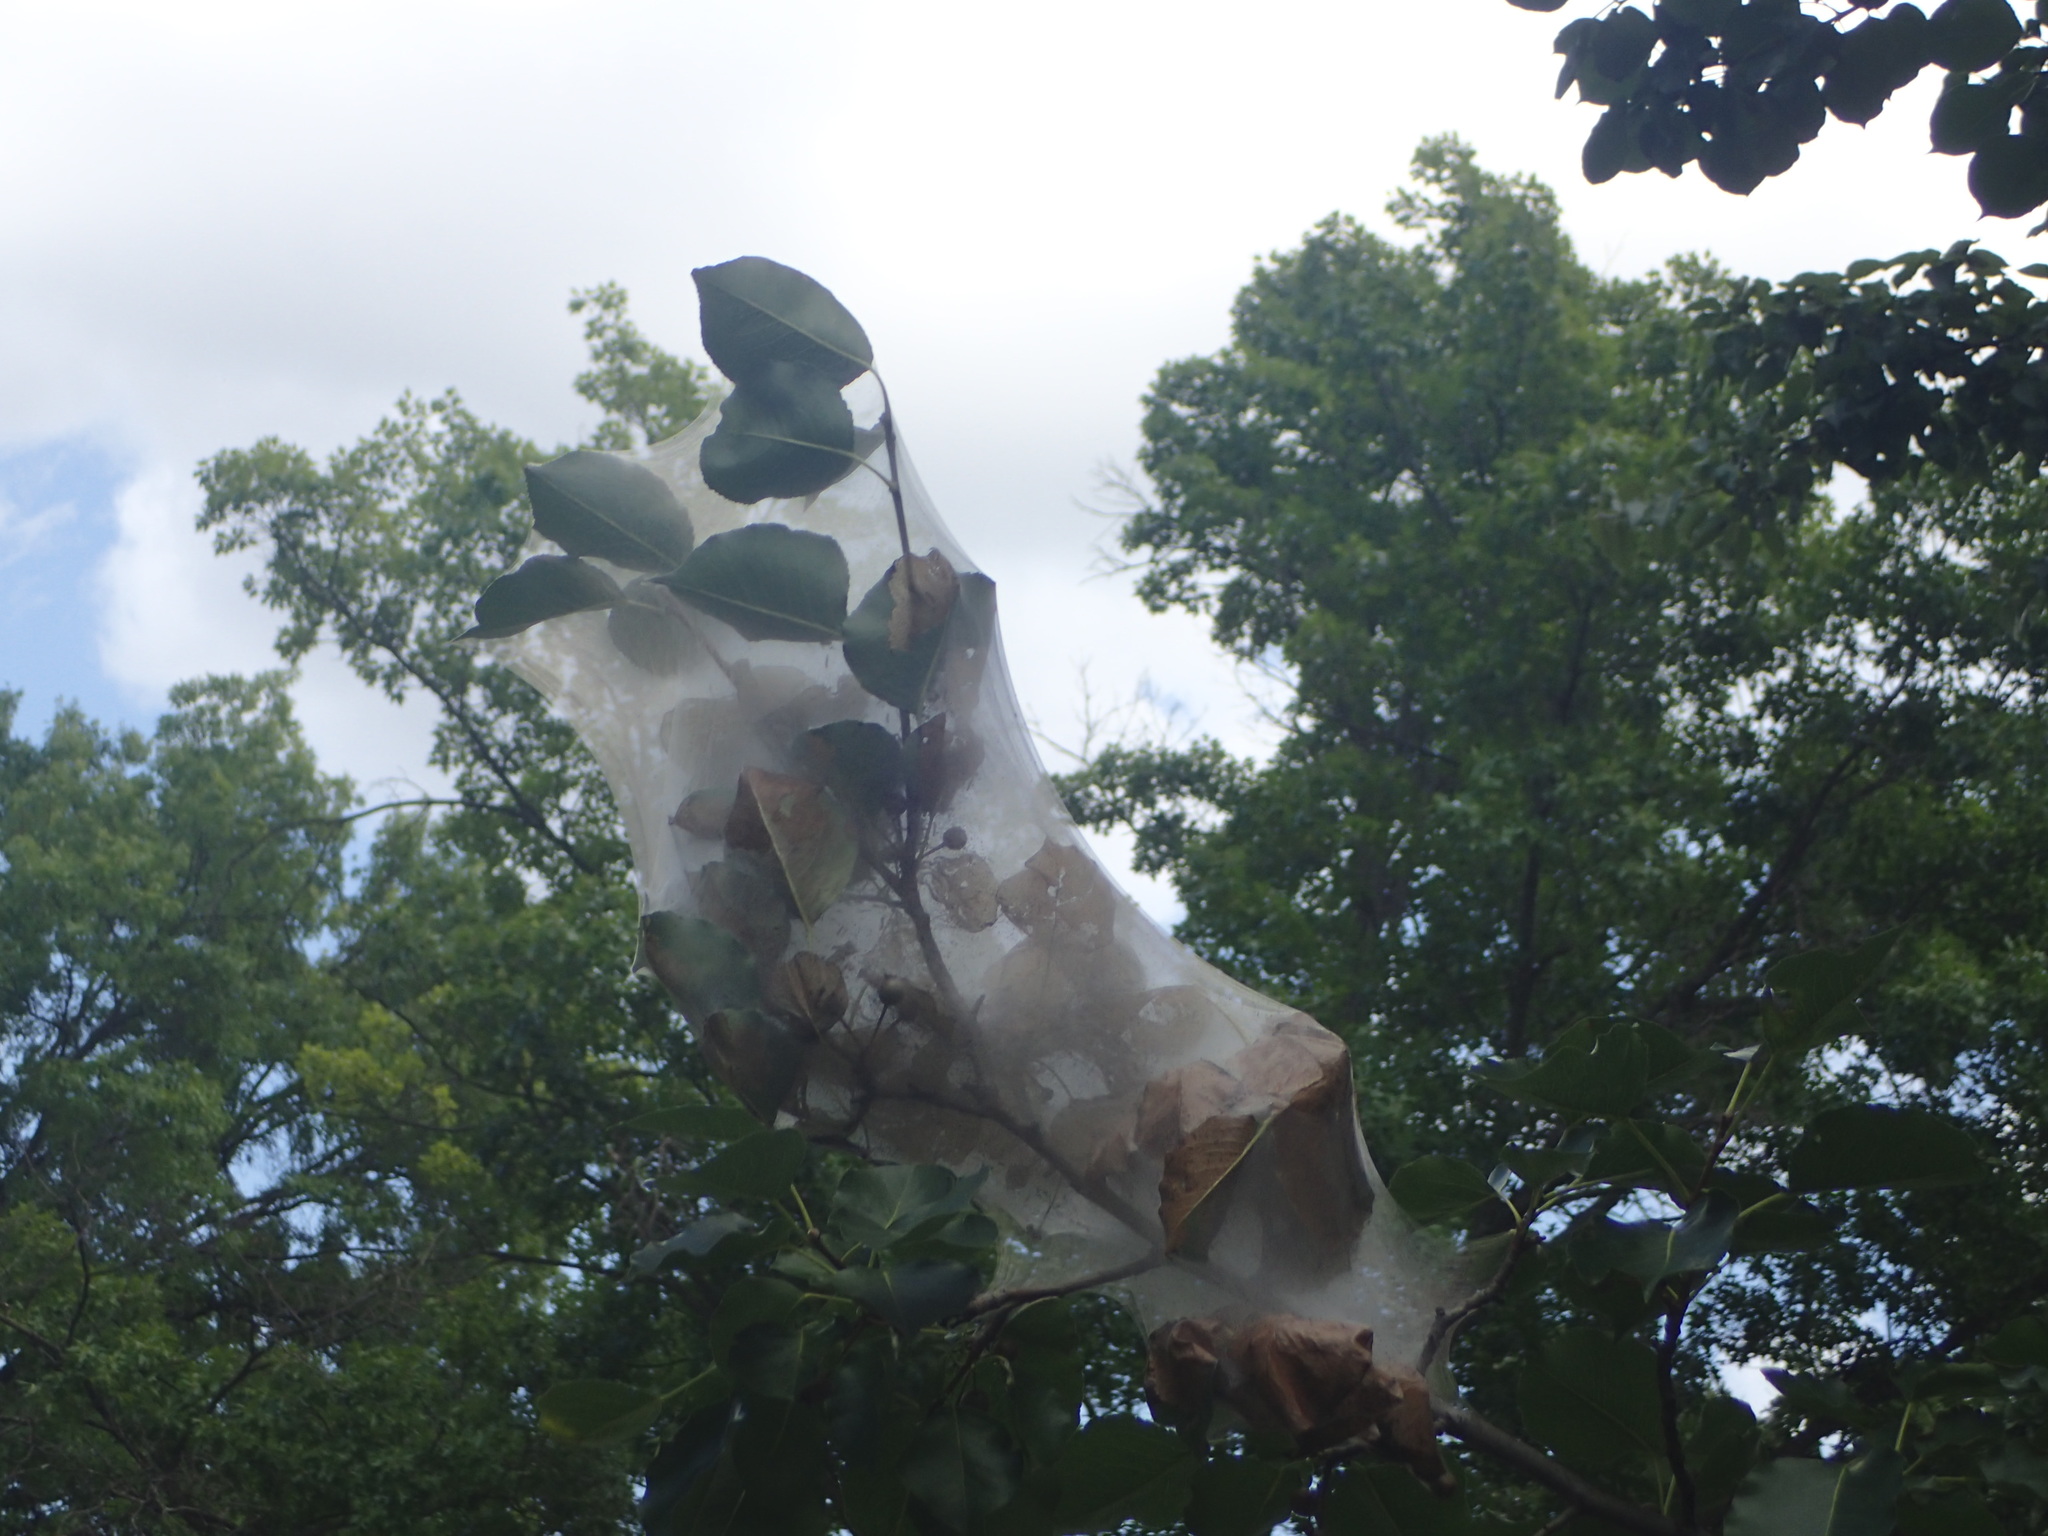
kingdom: Animalia
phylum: Arthropoda
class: Insecta
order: Lepidoptera
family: Erebidae
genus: Hyphantria
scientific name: Hyphantria cunea
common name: American white moth
